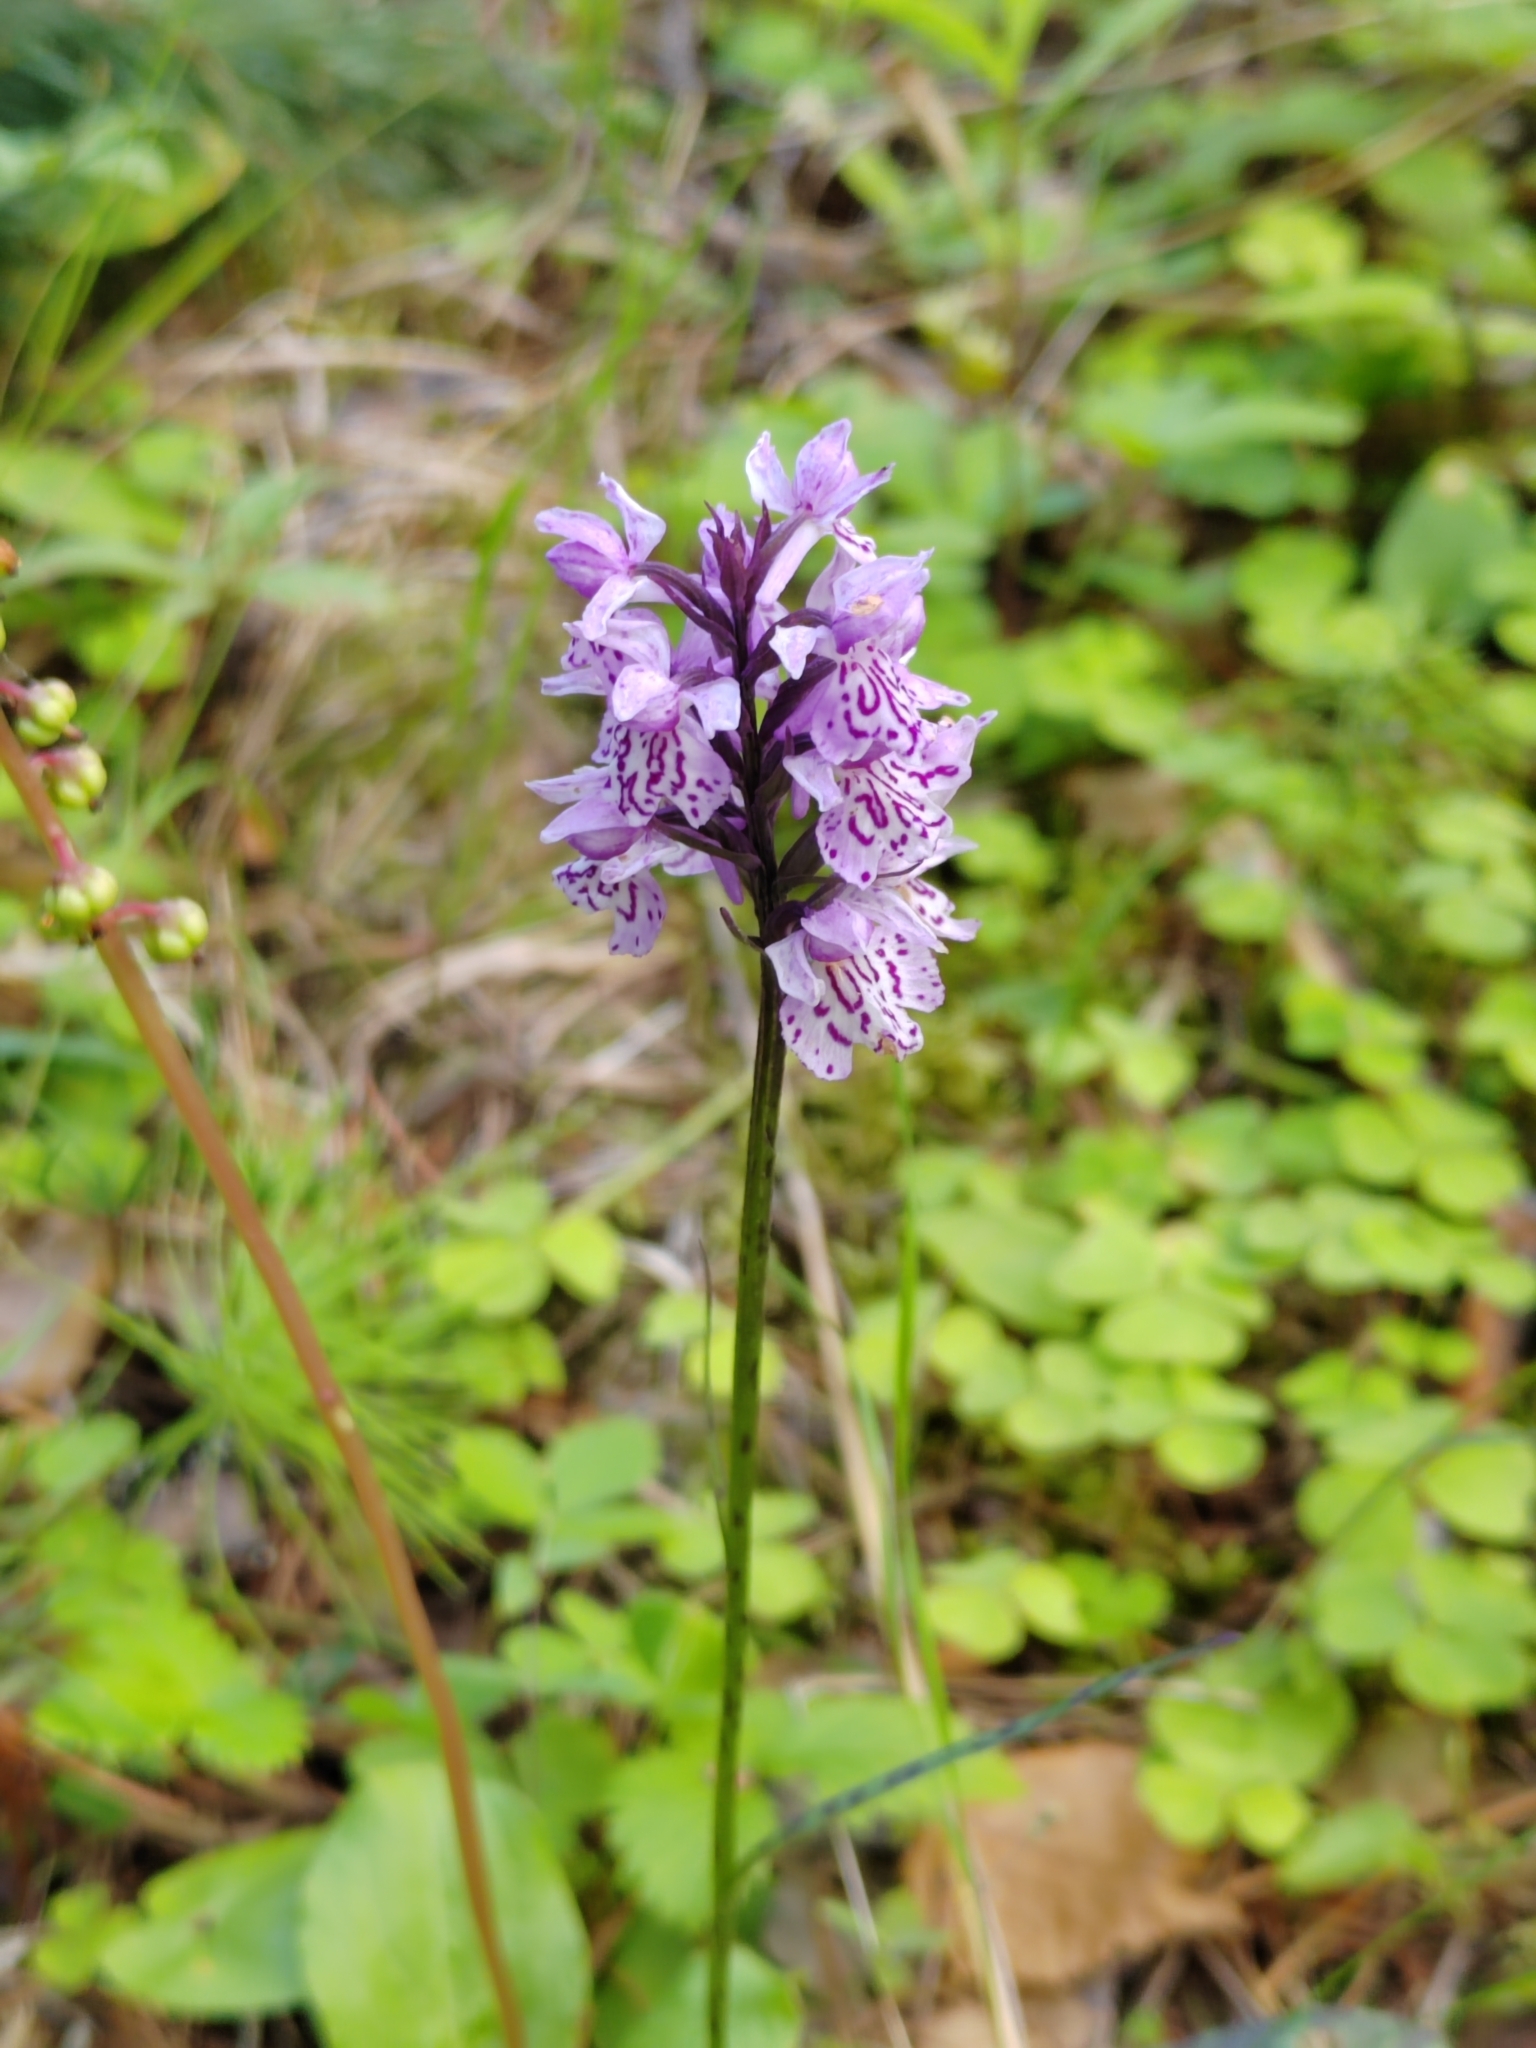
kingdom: Plantae
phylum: Tracheophyta
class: Liliopsida
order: Asparagales
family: Orchidaceae
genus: Dactylorhiza
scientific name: Dactylorhiza maculata
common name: Heath spotted-orchid
